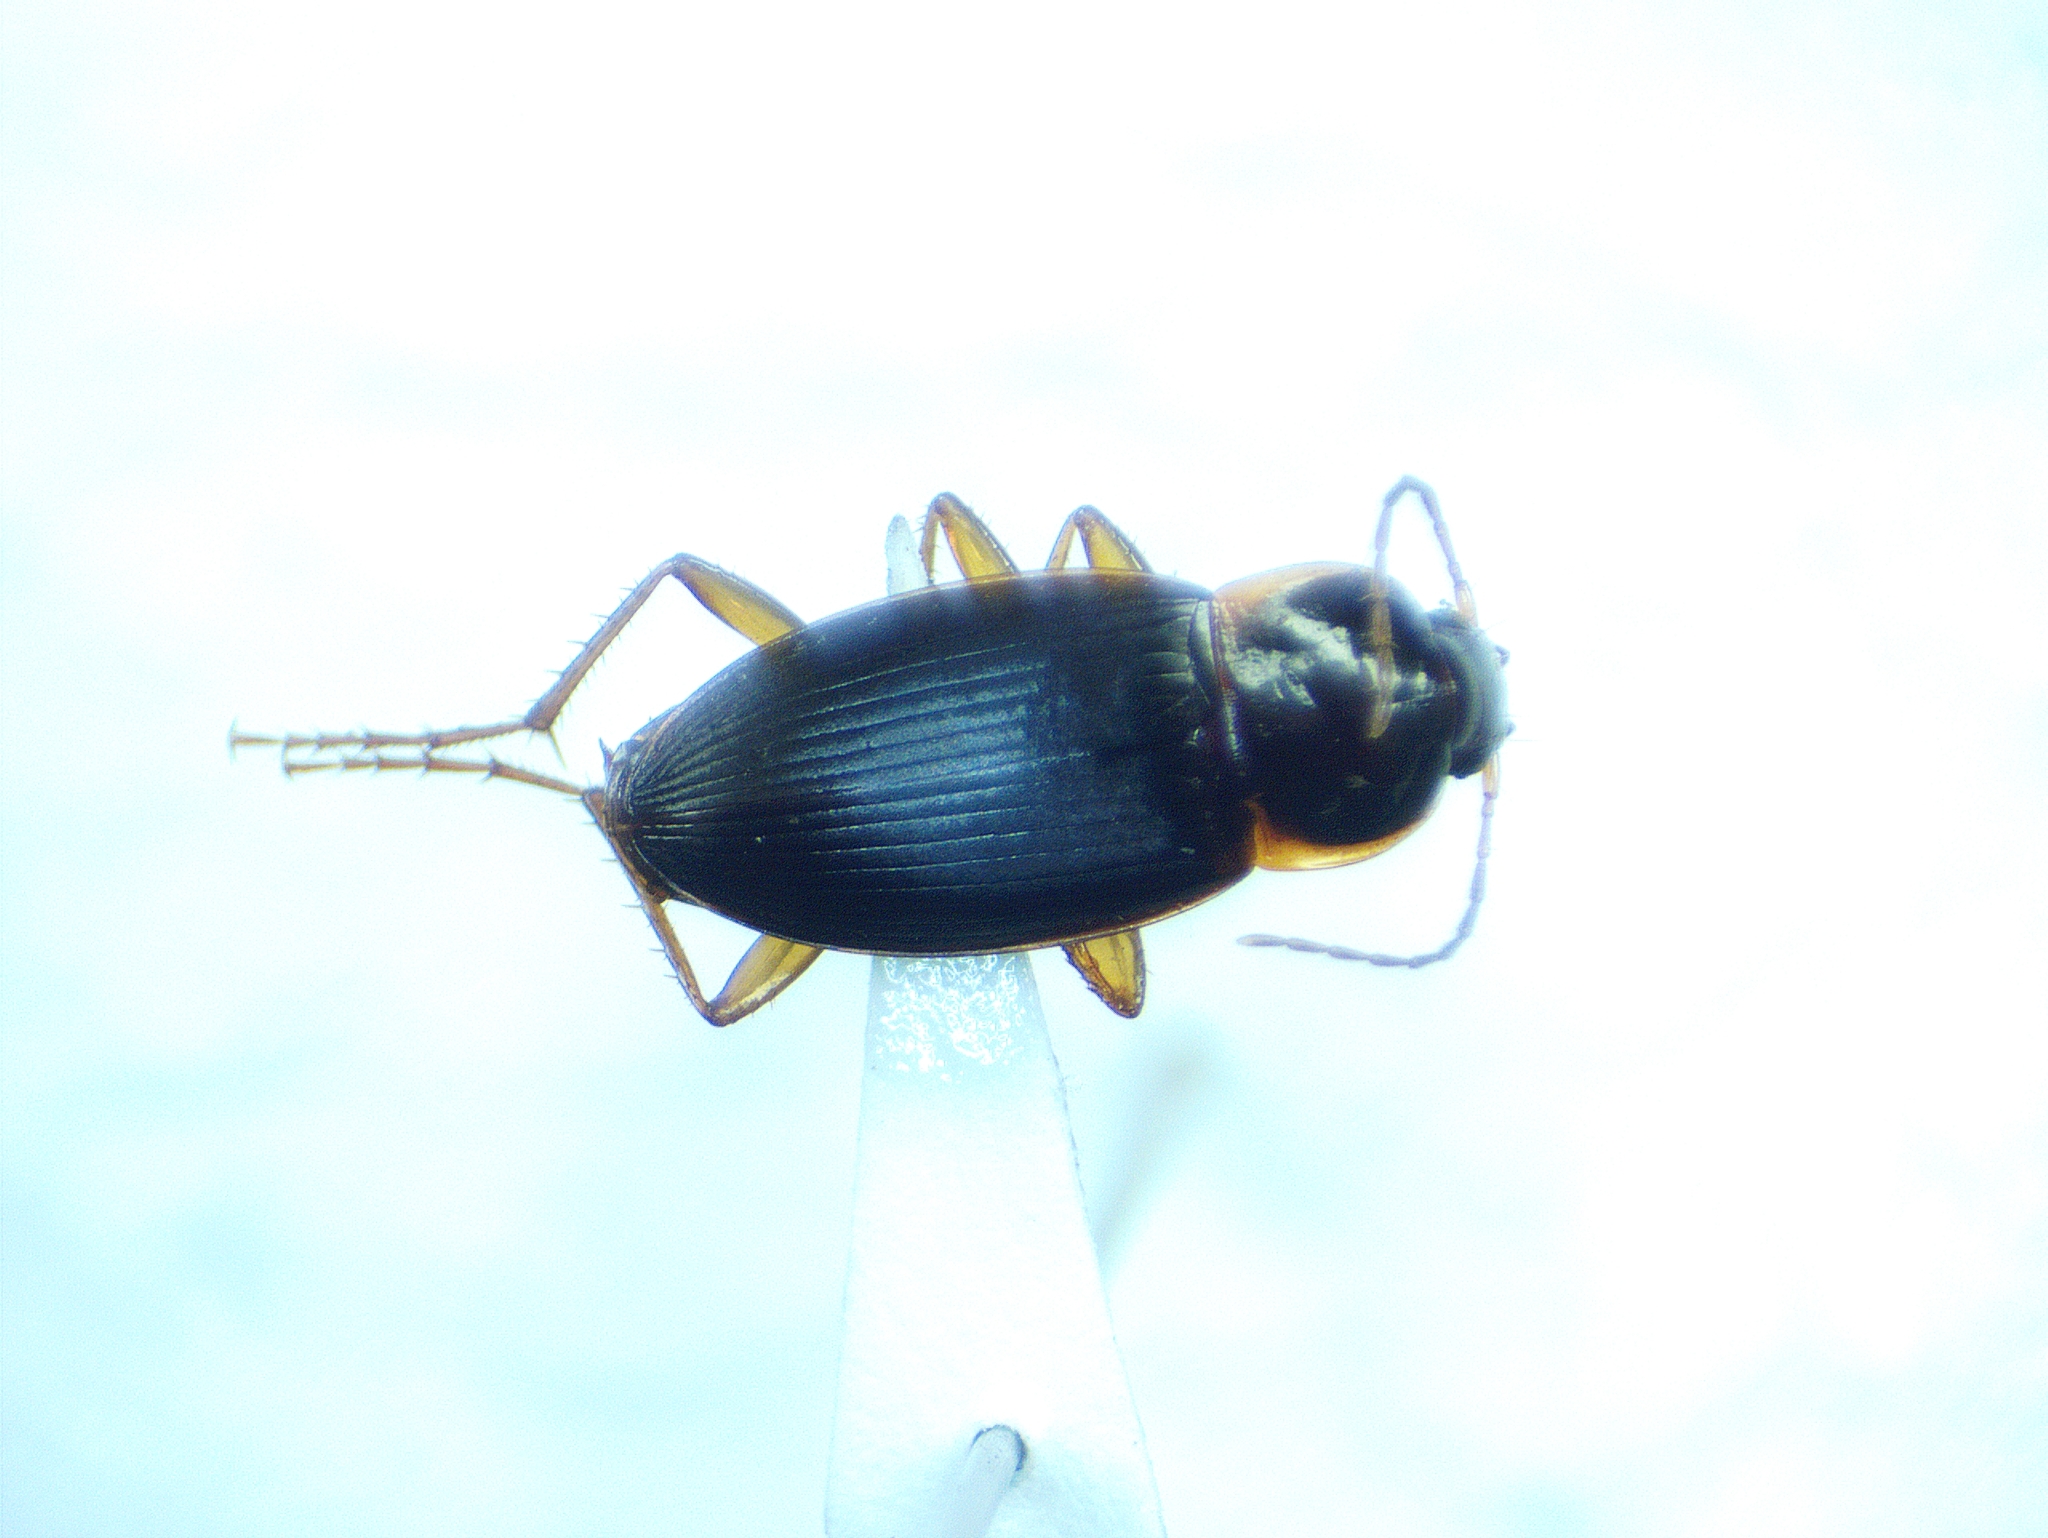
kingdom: Animalia
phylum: Arthropoda
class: Insecta
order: Coleoptera
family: Carabidae
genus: Calathus
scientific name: Calathus opaculus
